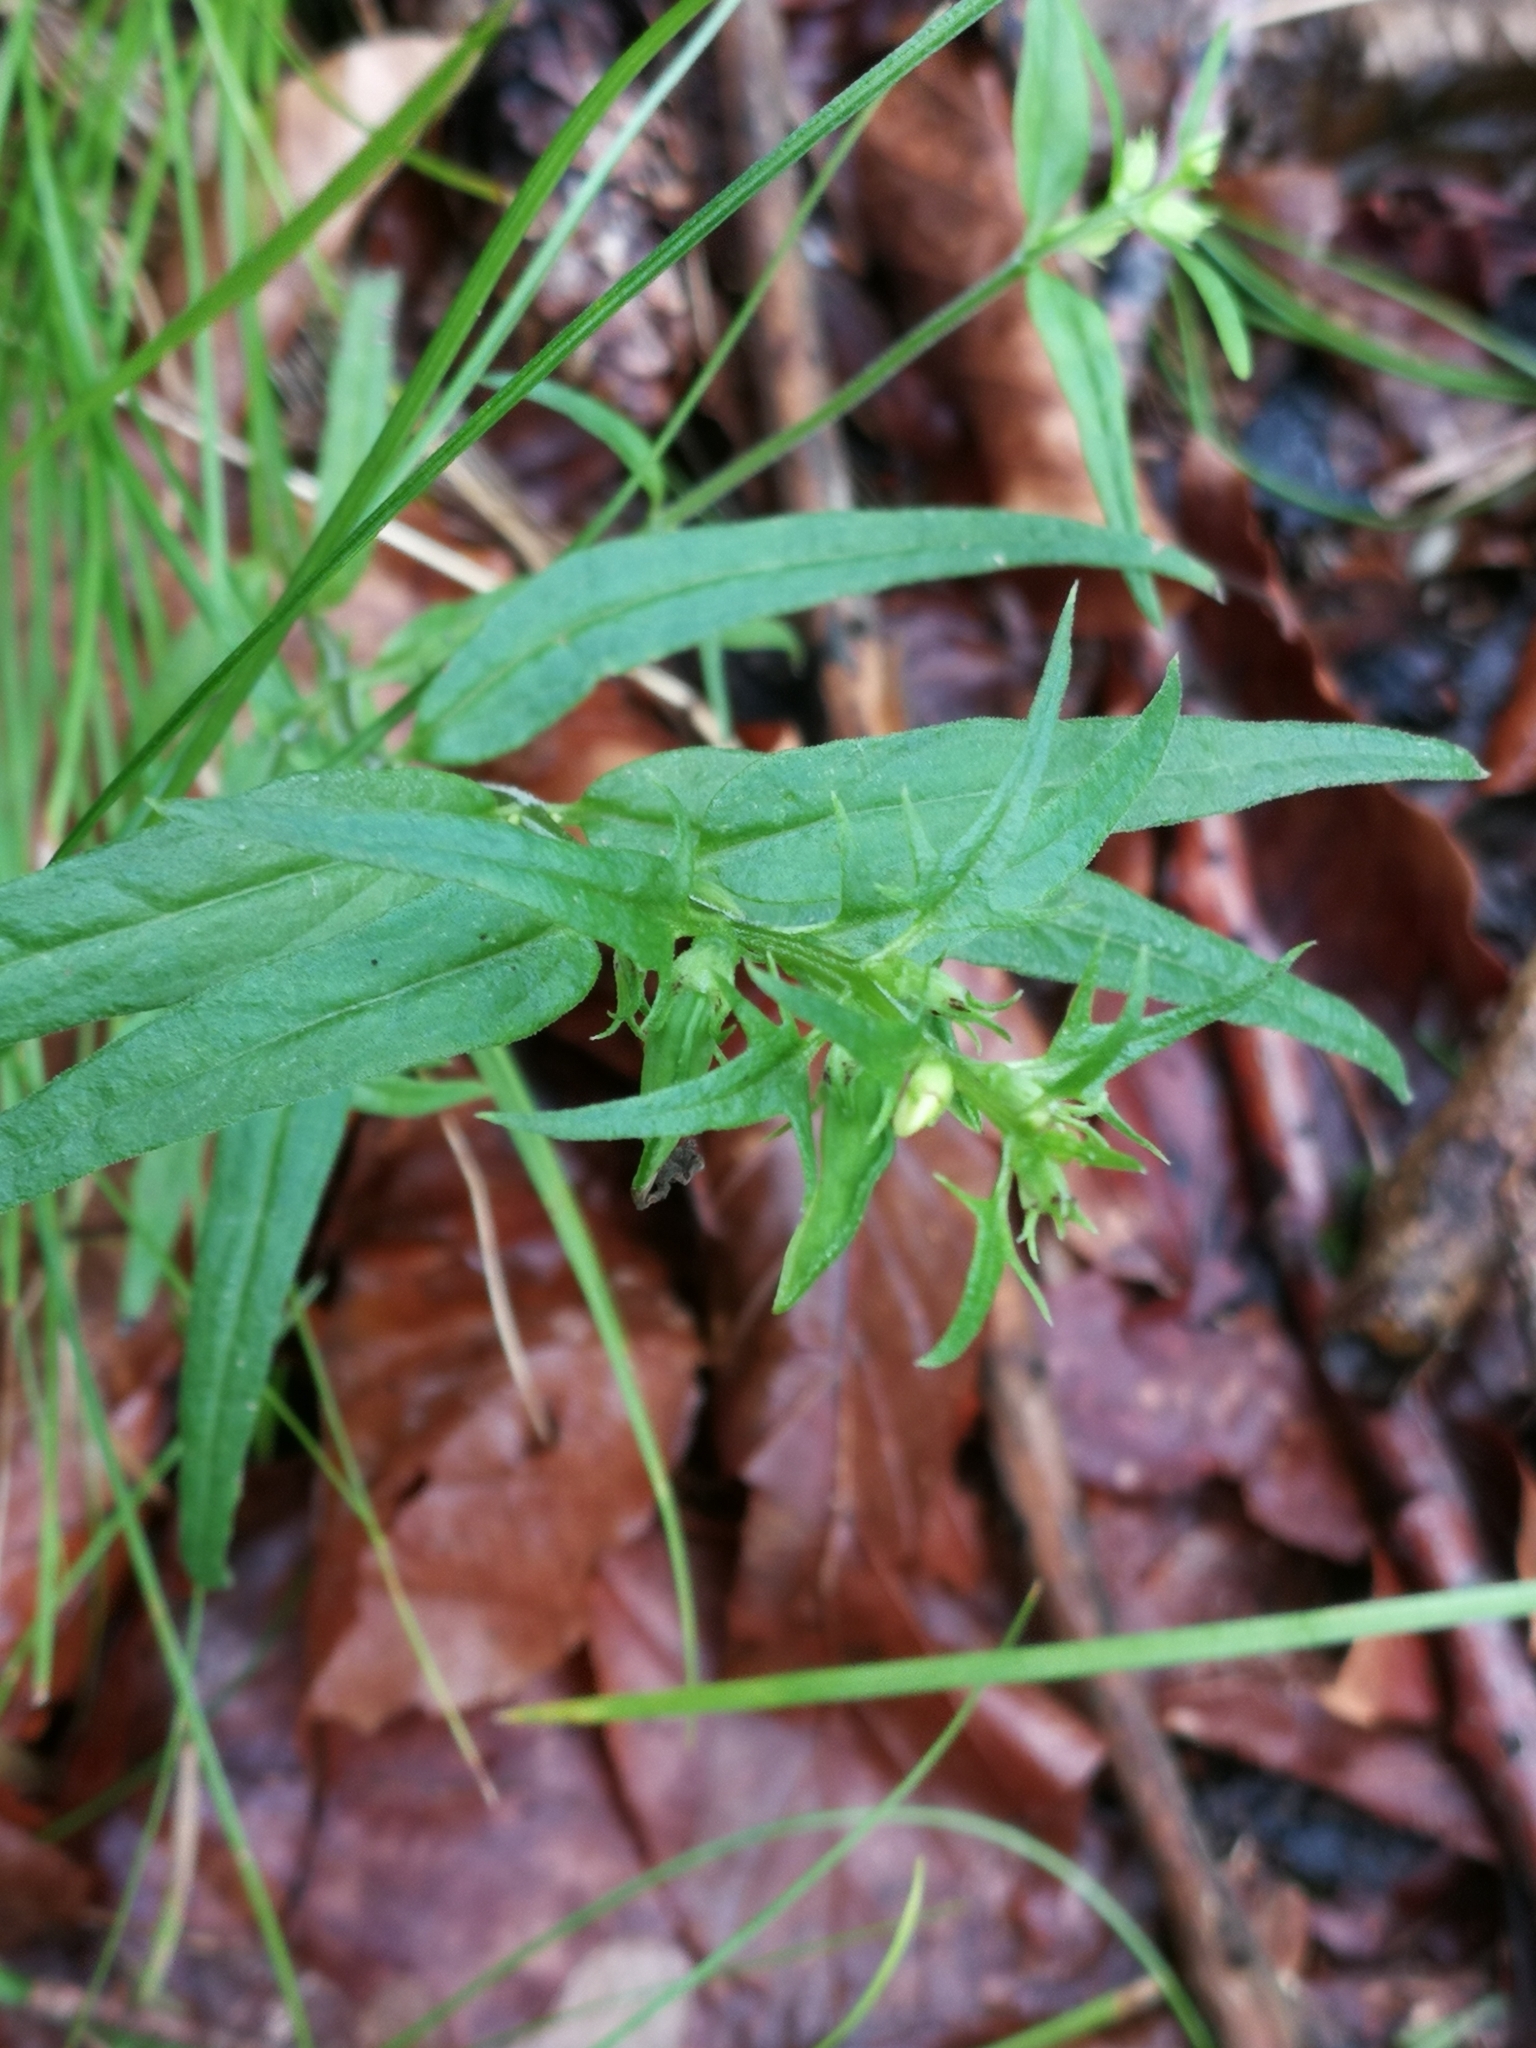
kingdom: Plantae
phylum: Tracheophyta
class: Magnoliopsida
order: Lamiales
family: Orobanchaceae
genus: Melampyrum
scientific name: Melampyrum pratense
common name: Common cow-wheat
